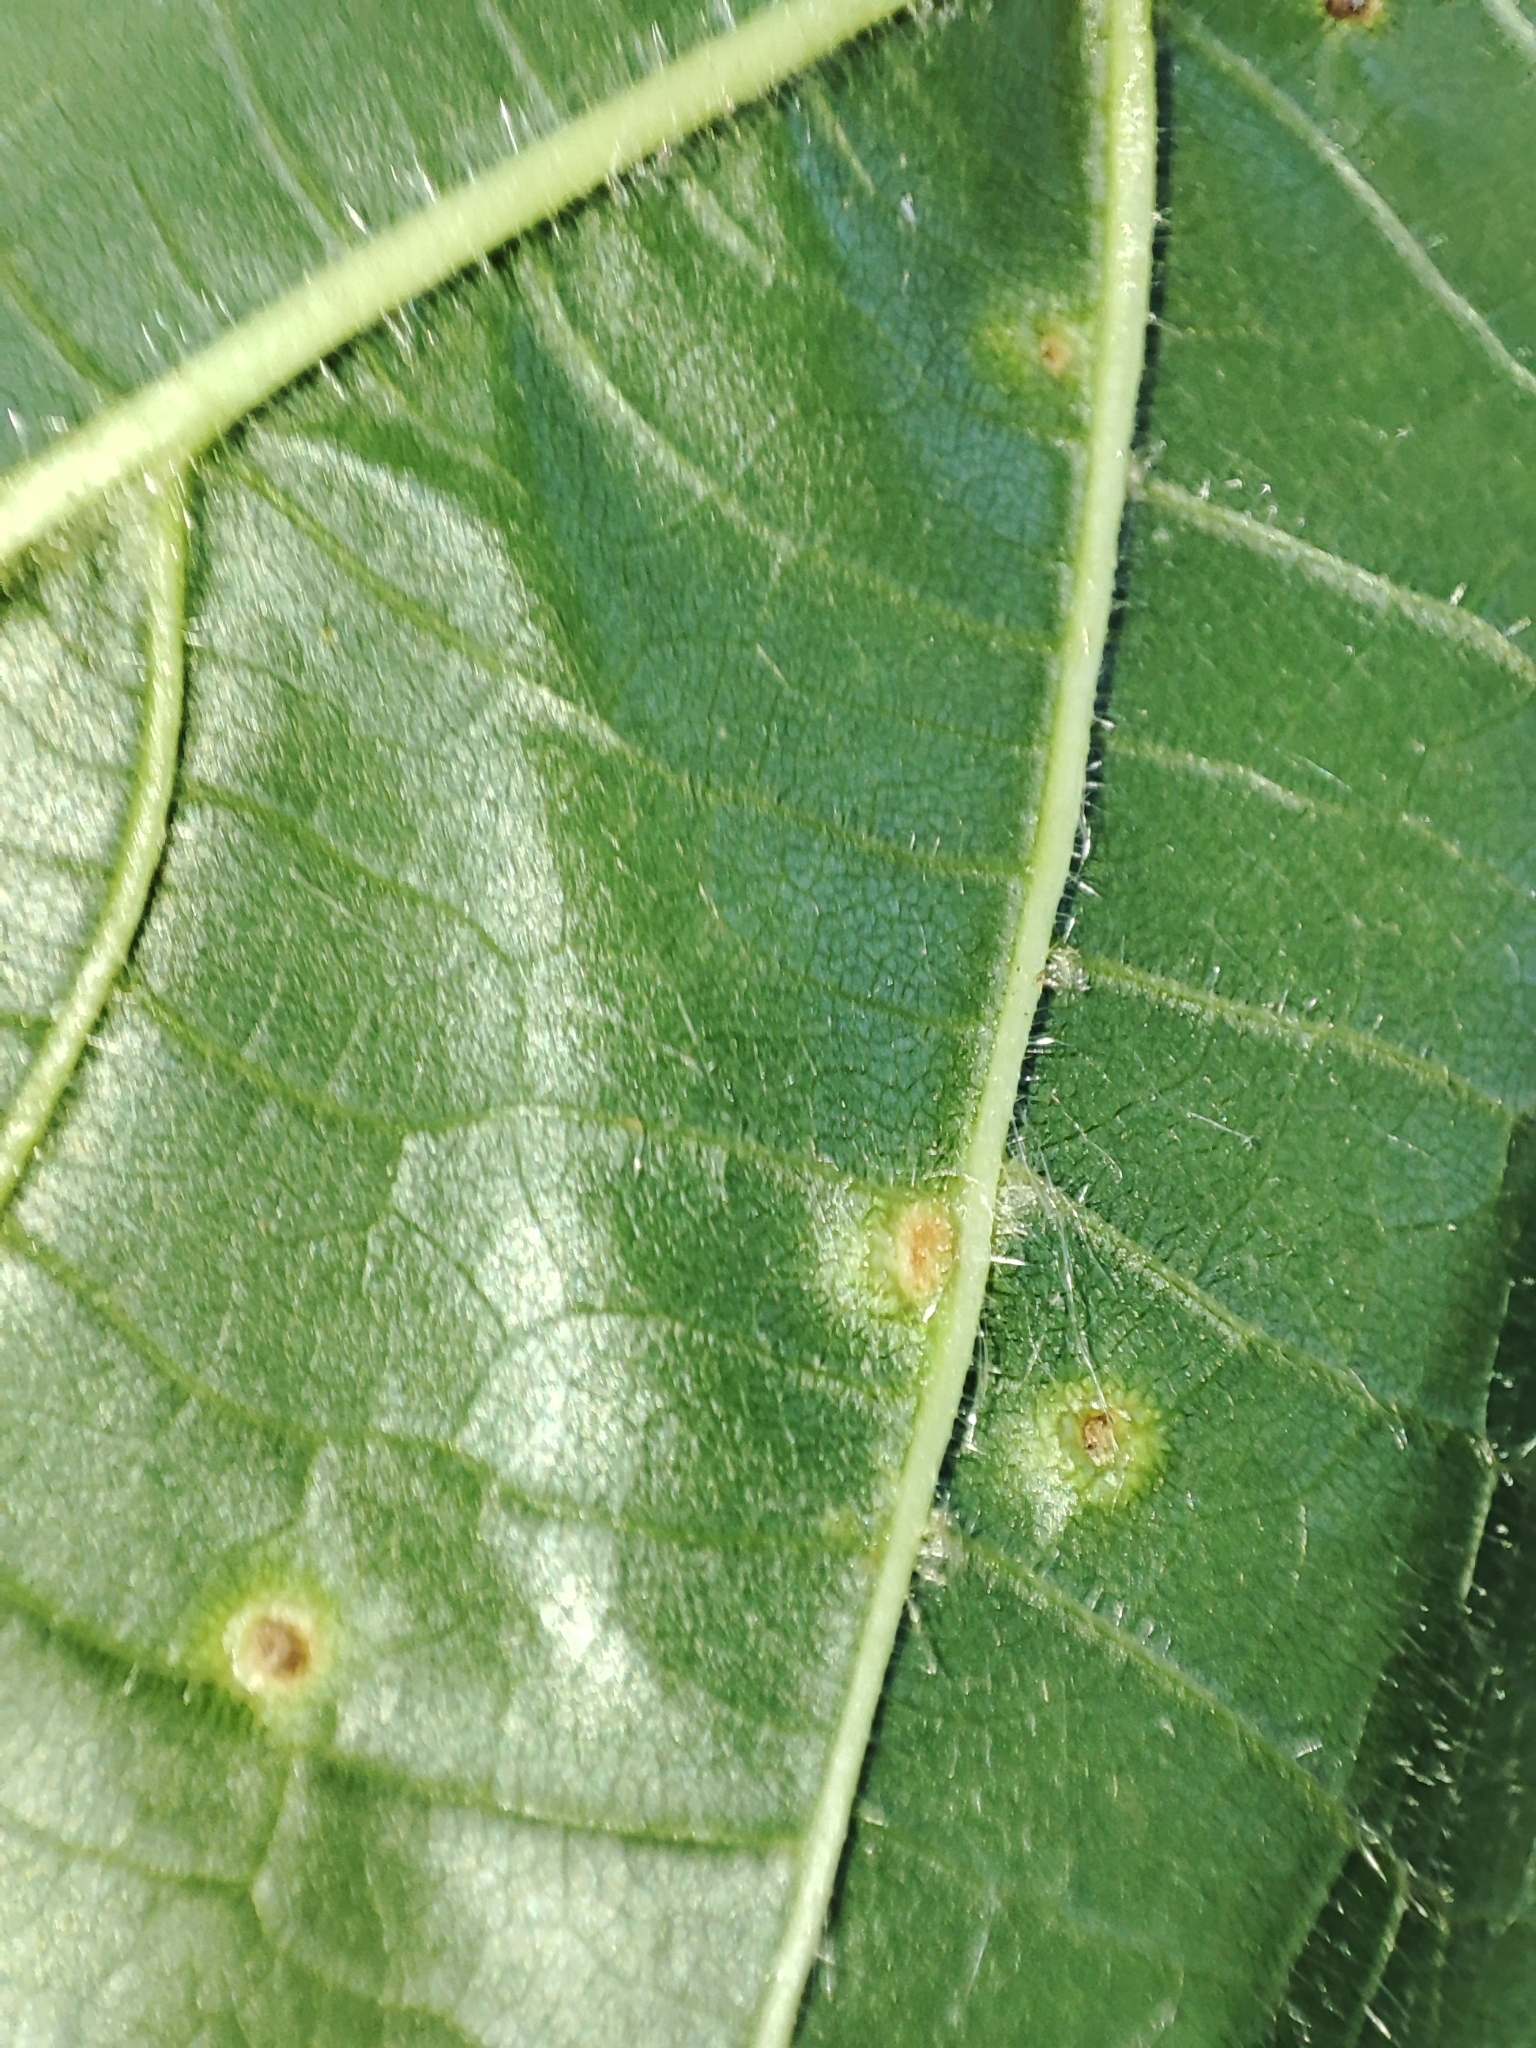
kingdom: Animalia
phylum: Arthropoda
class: Arachnida
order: Trombidiformes
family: Eriophyidae
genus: Eriophyes
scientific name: Eriophyes tiliae
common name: Red nail gall mite
